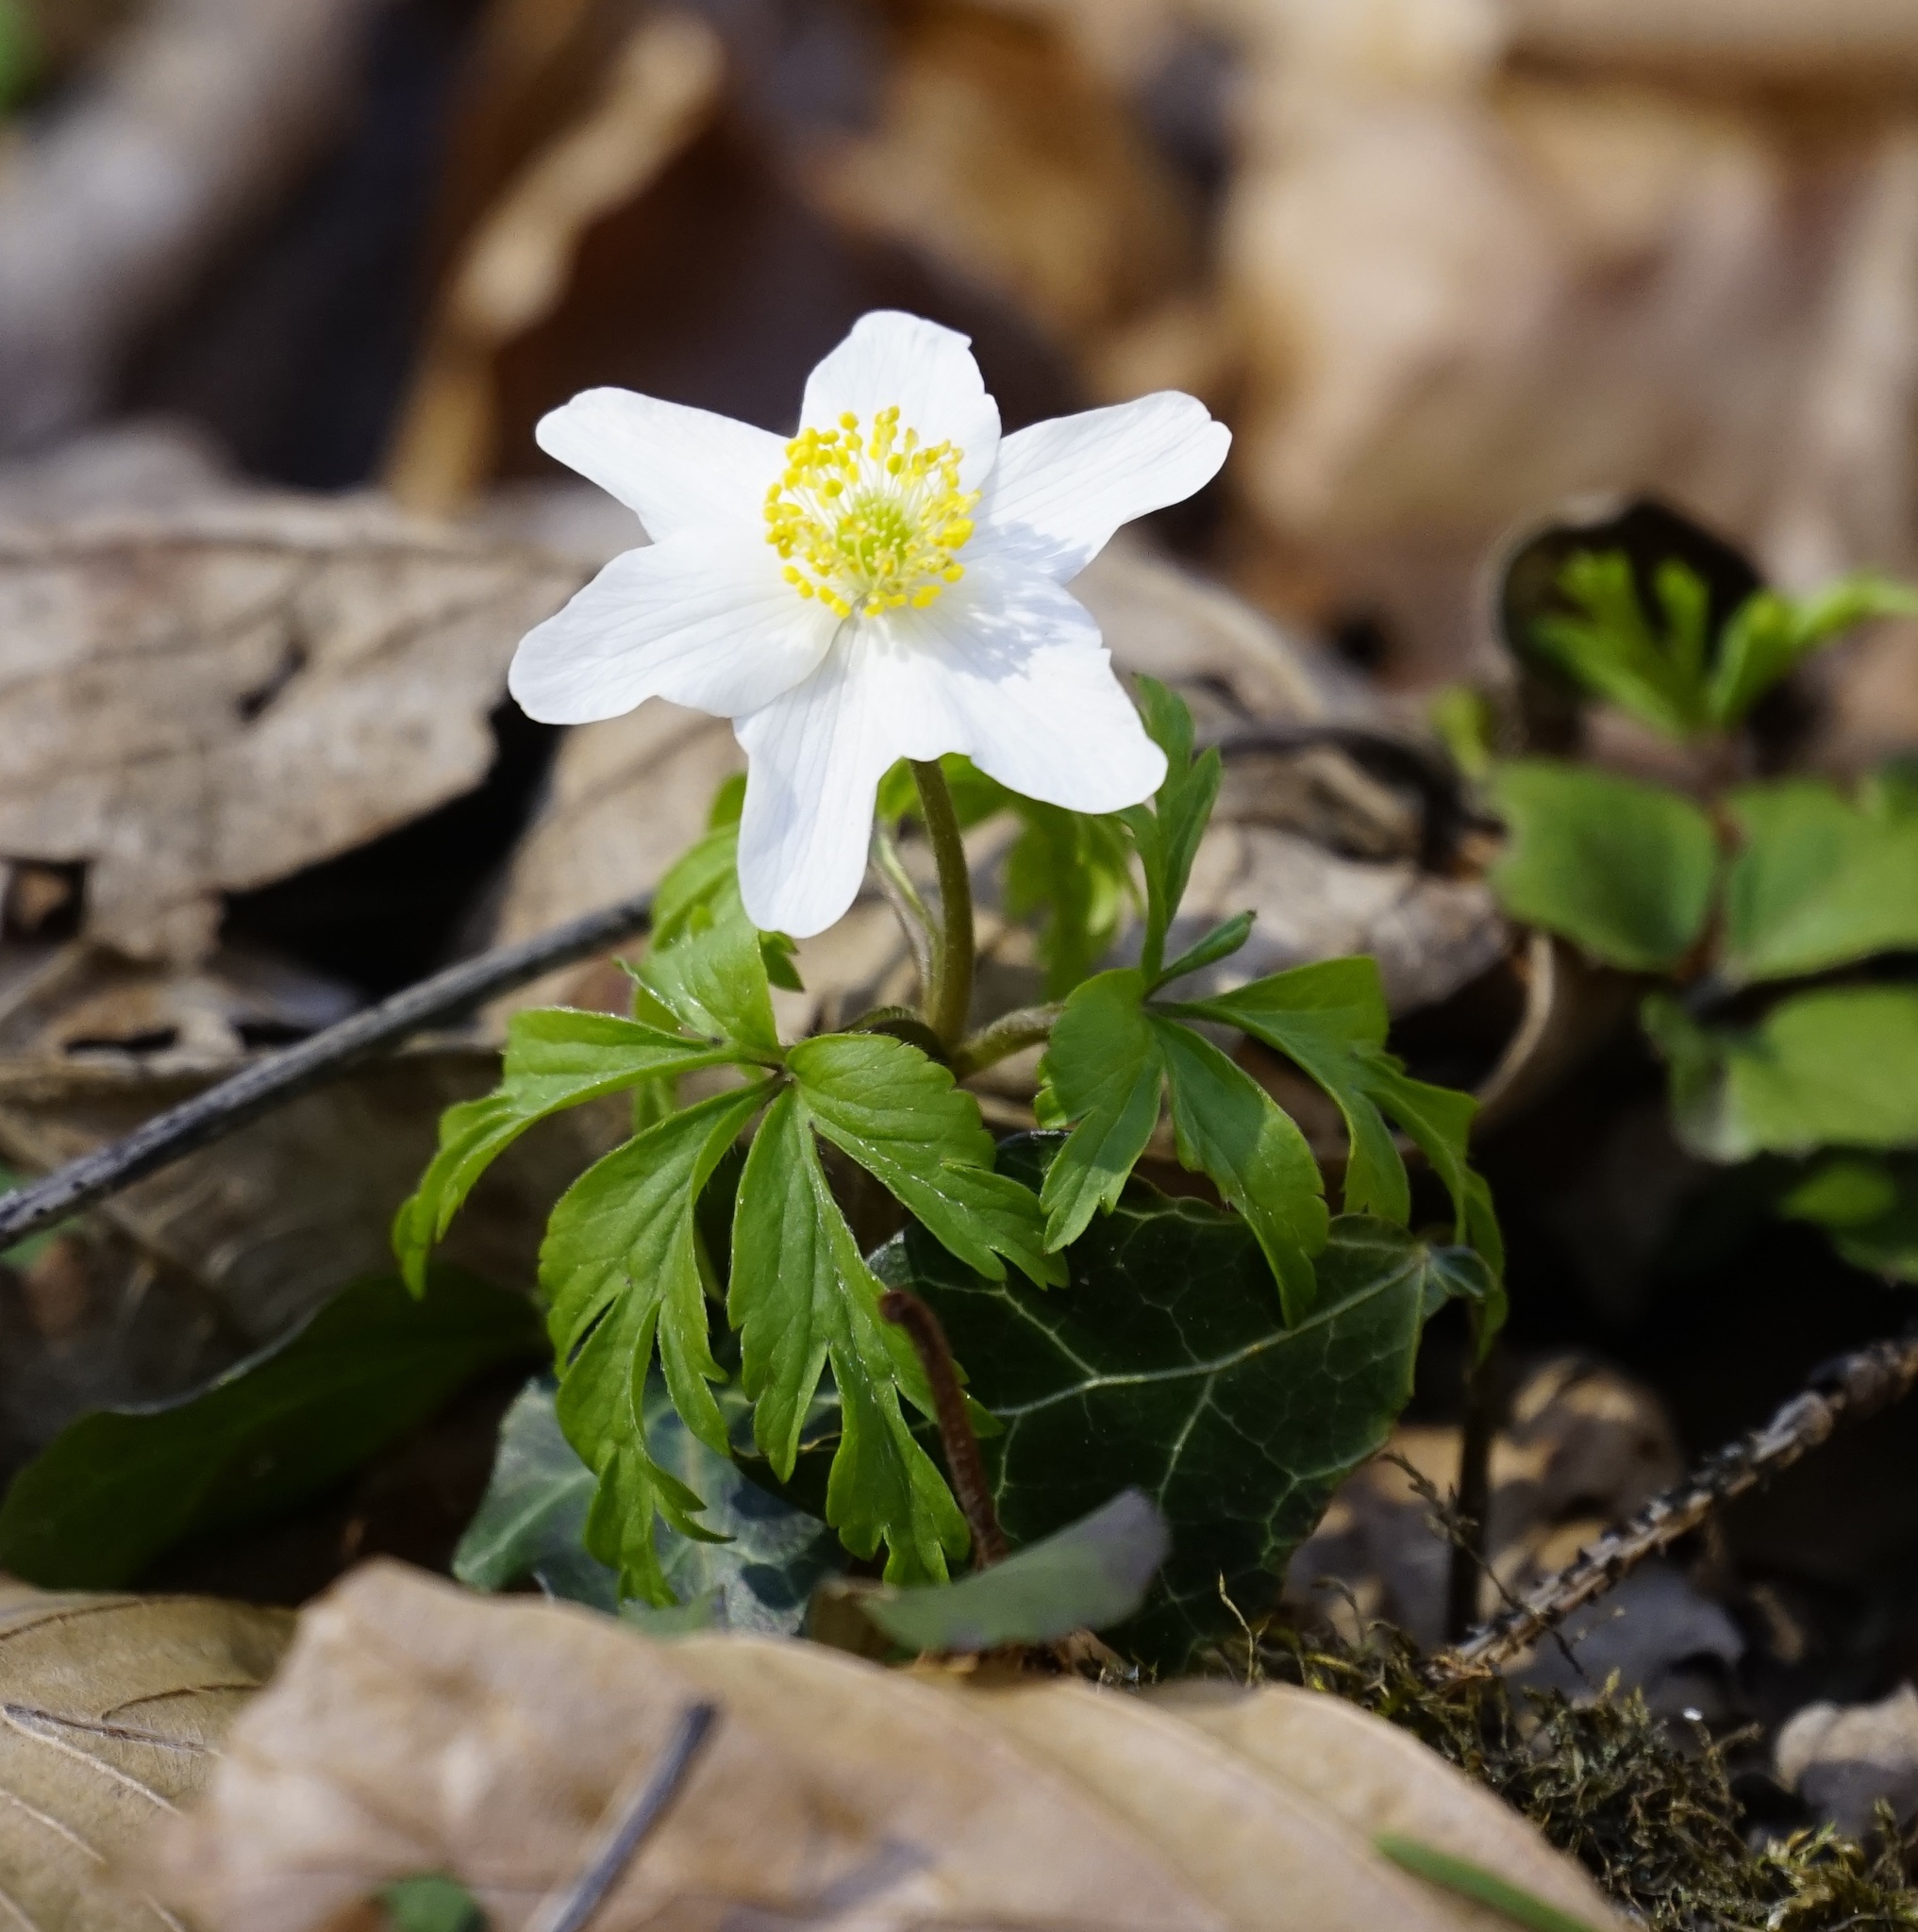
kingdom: Plantae
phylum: Tracheophyta
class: Magnoliopsida
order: Ranunculales
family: Ranunculaceae
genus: Anemone
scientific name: Anemone nemorosa
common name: Wood anemone
